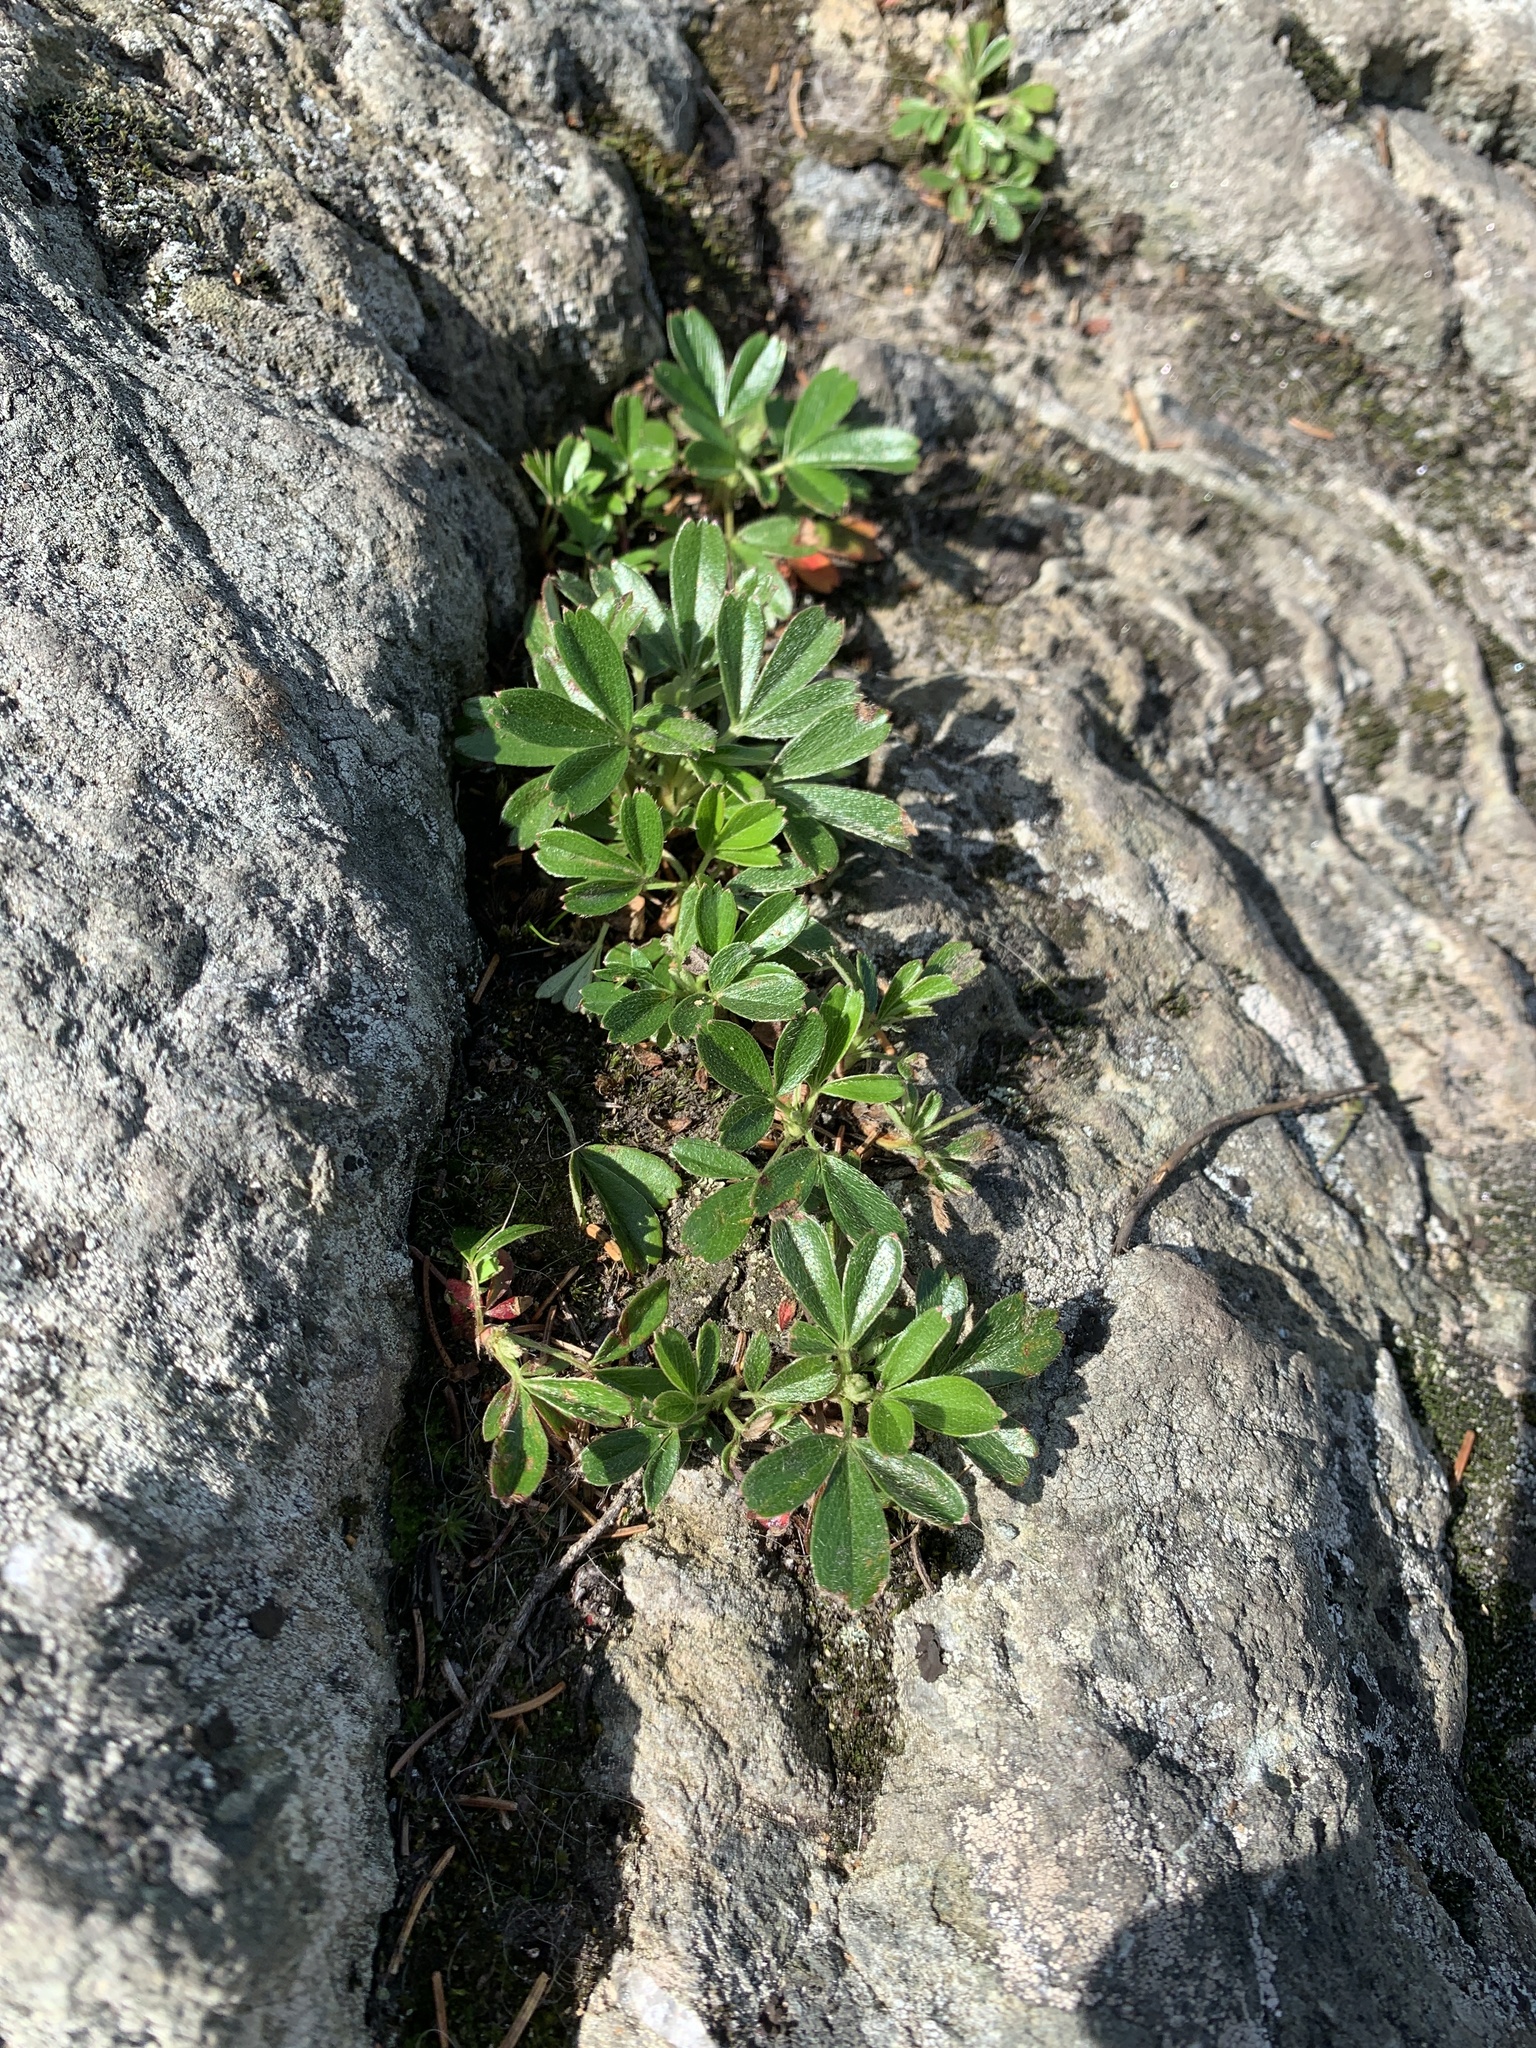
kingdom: Plantae
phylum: Tracheophyta
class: Magnoliopsida
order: Rosales
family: Rosaceae
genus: Sibbaldia
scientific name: Sibbaldia tridentata
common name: Three-toothed cinquefoil
